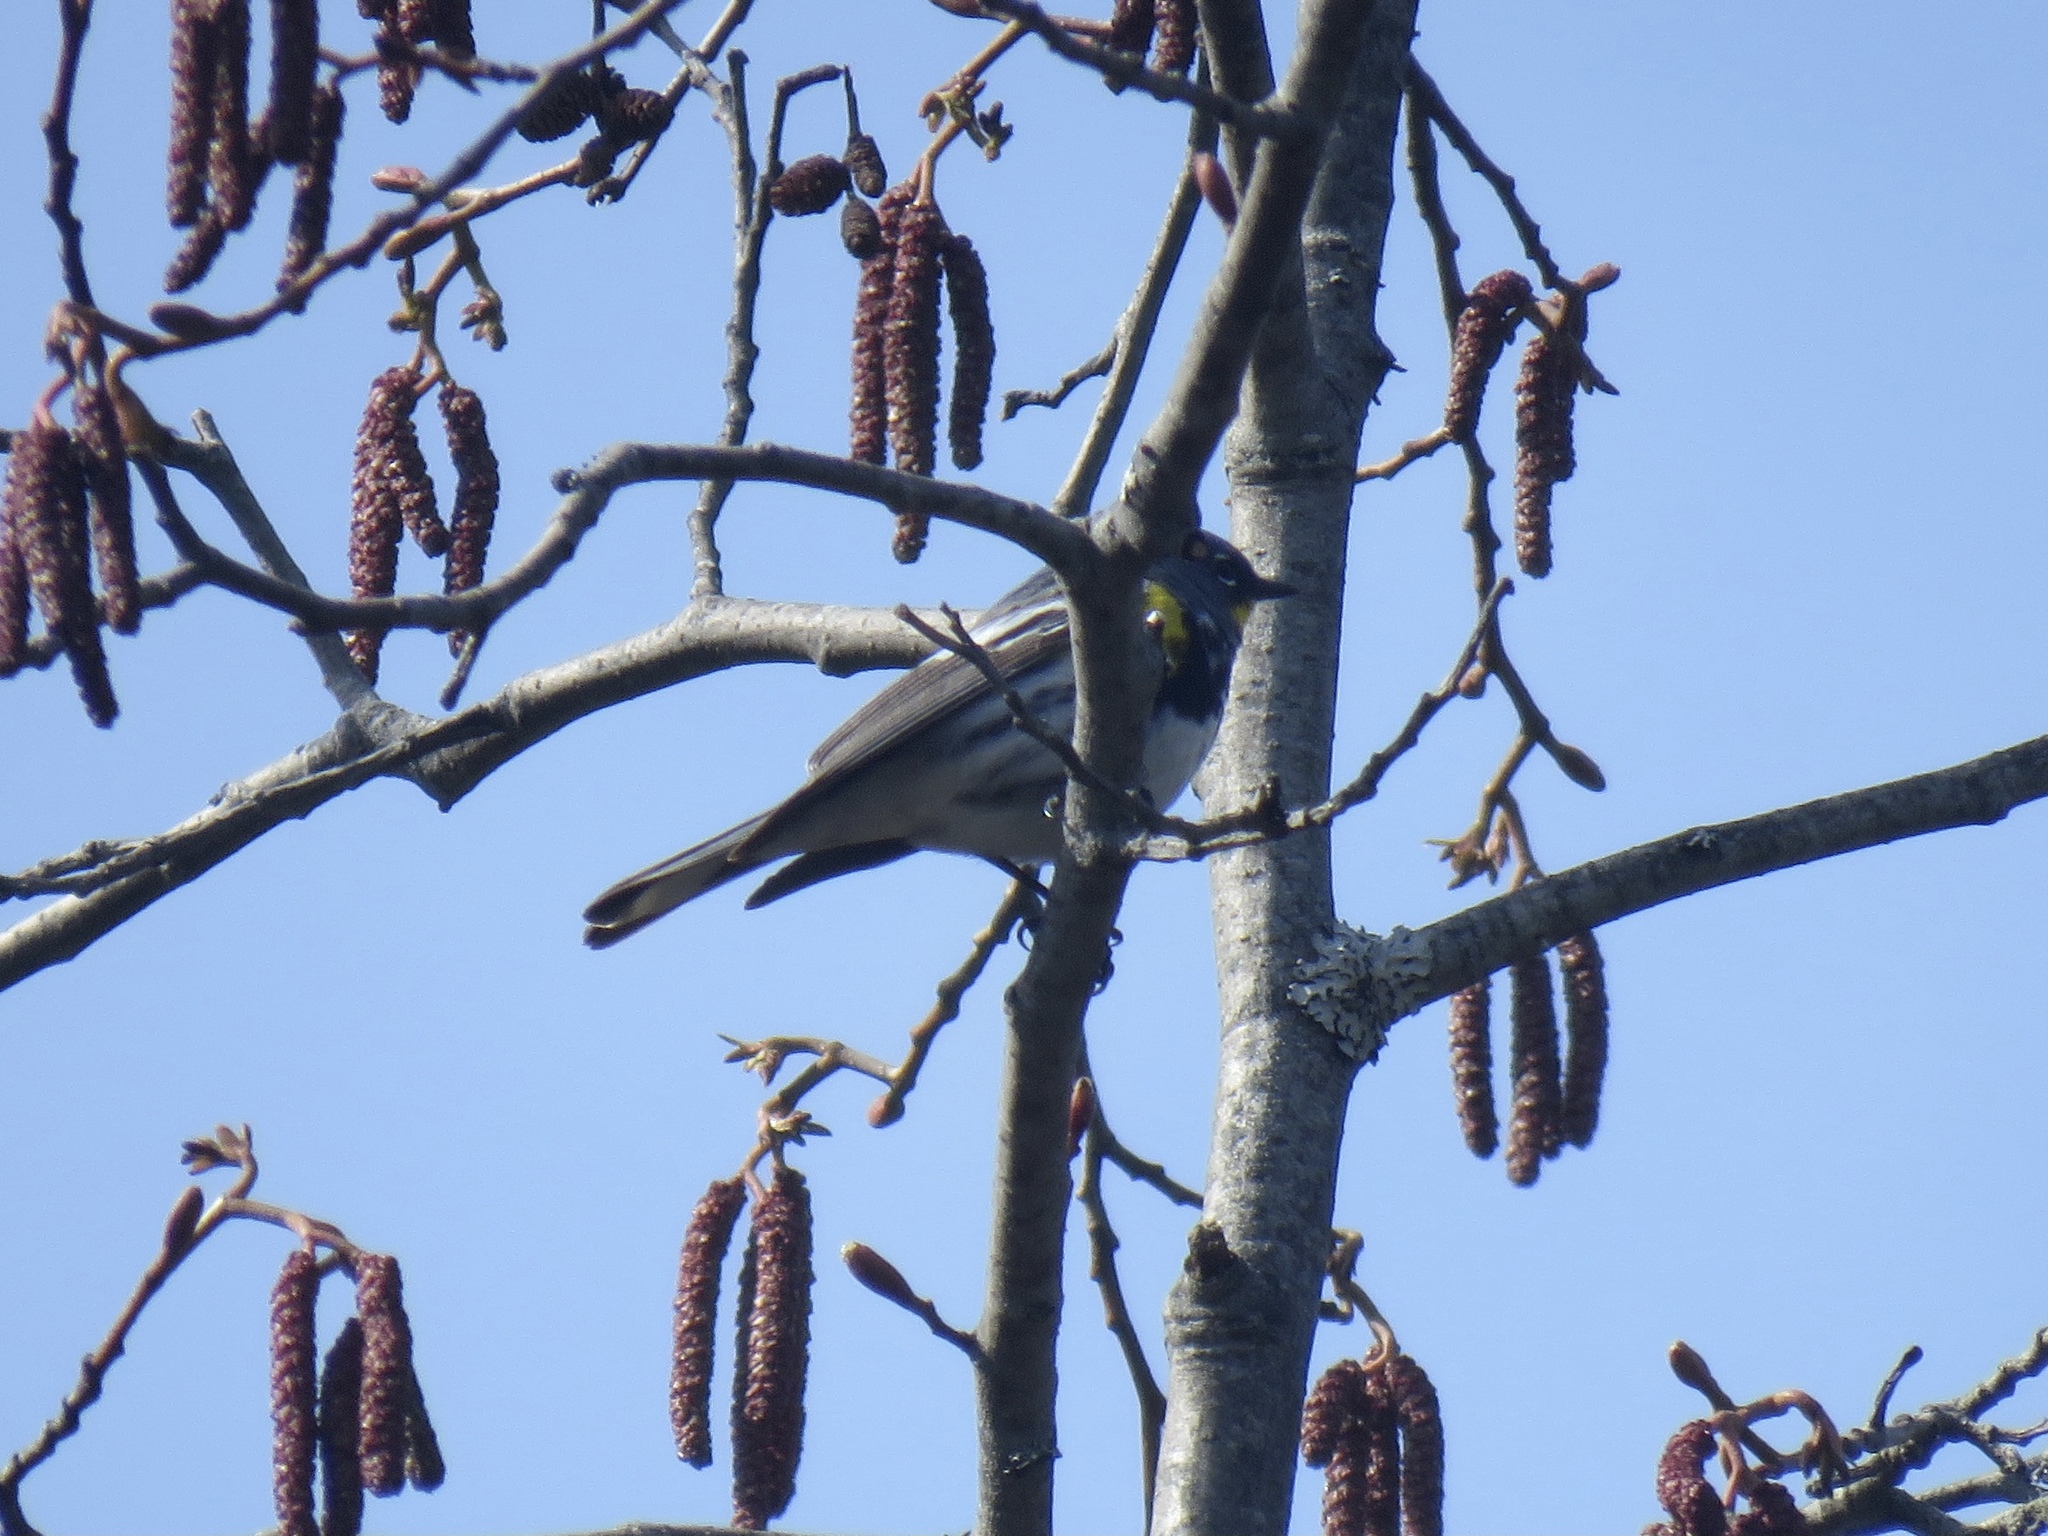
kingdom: Animalia
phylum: Chordata
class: Aves
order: Passeriformes
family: Parulidae
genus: Setophaga
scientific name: Setophaga coronata
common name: Myrtle warbler
